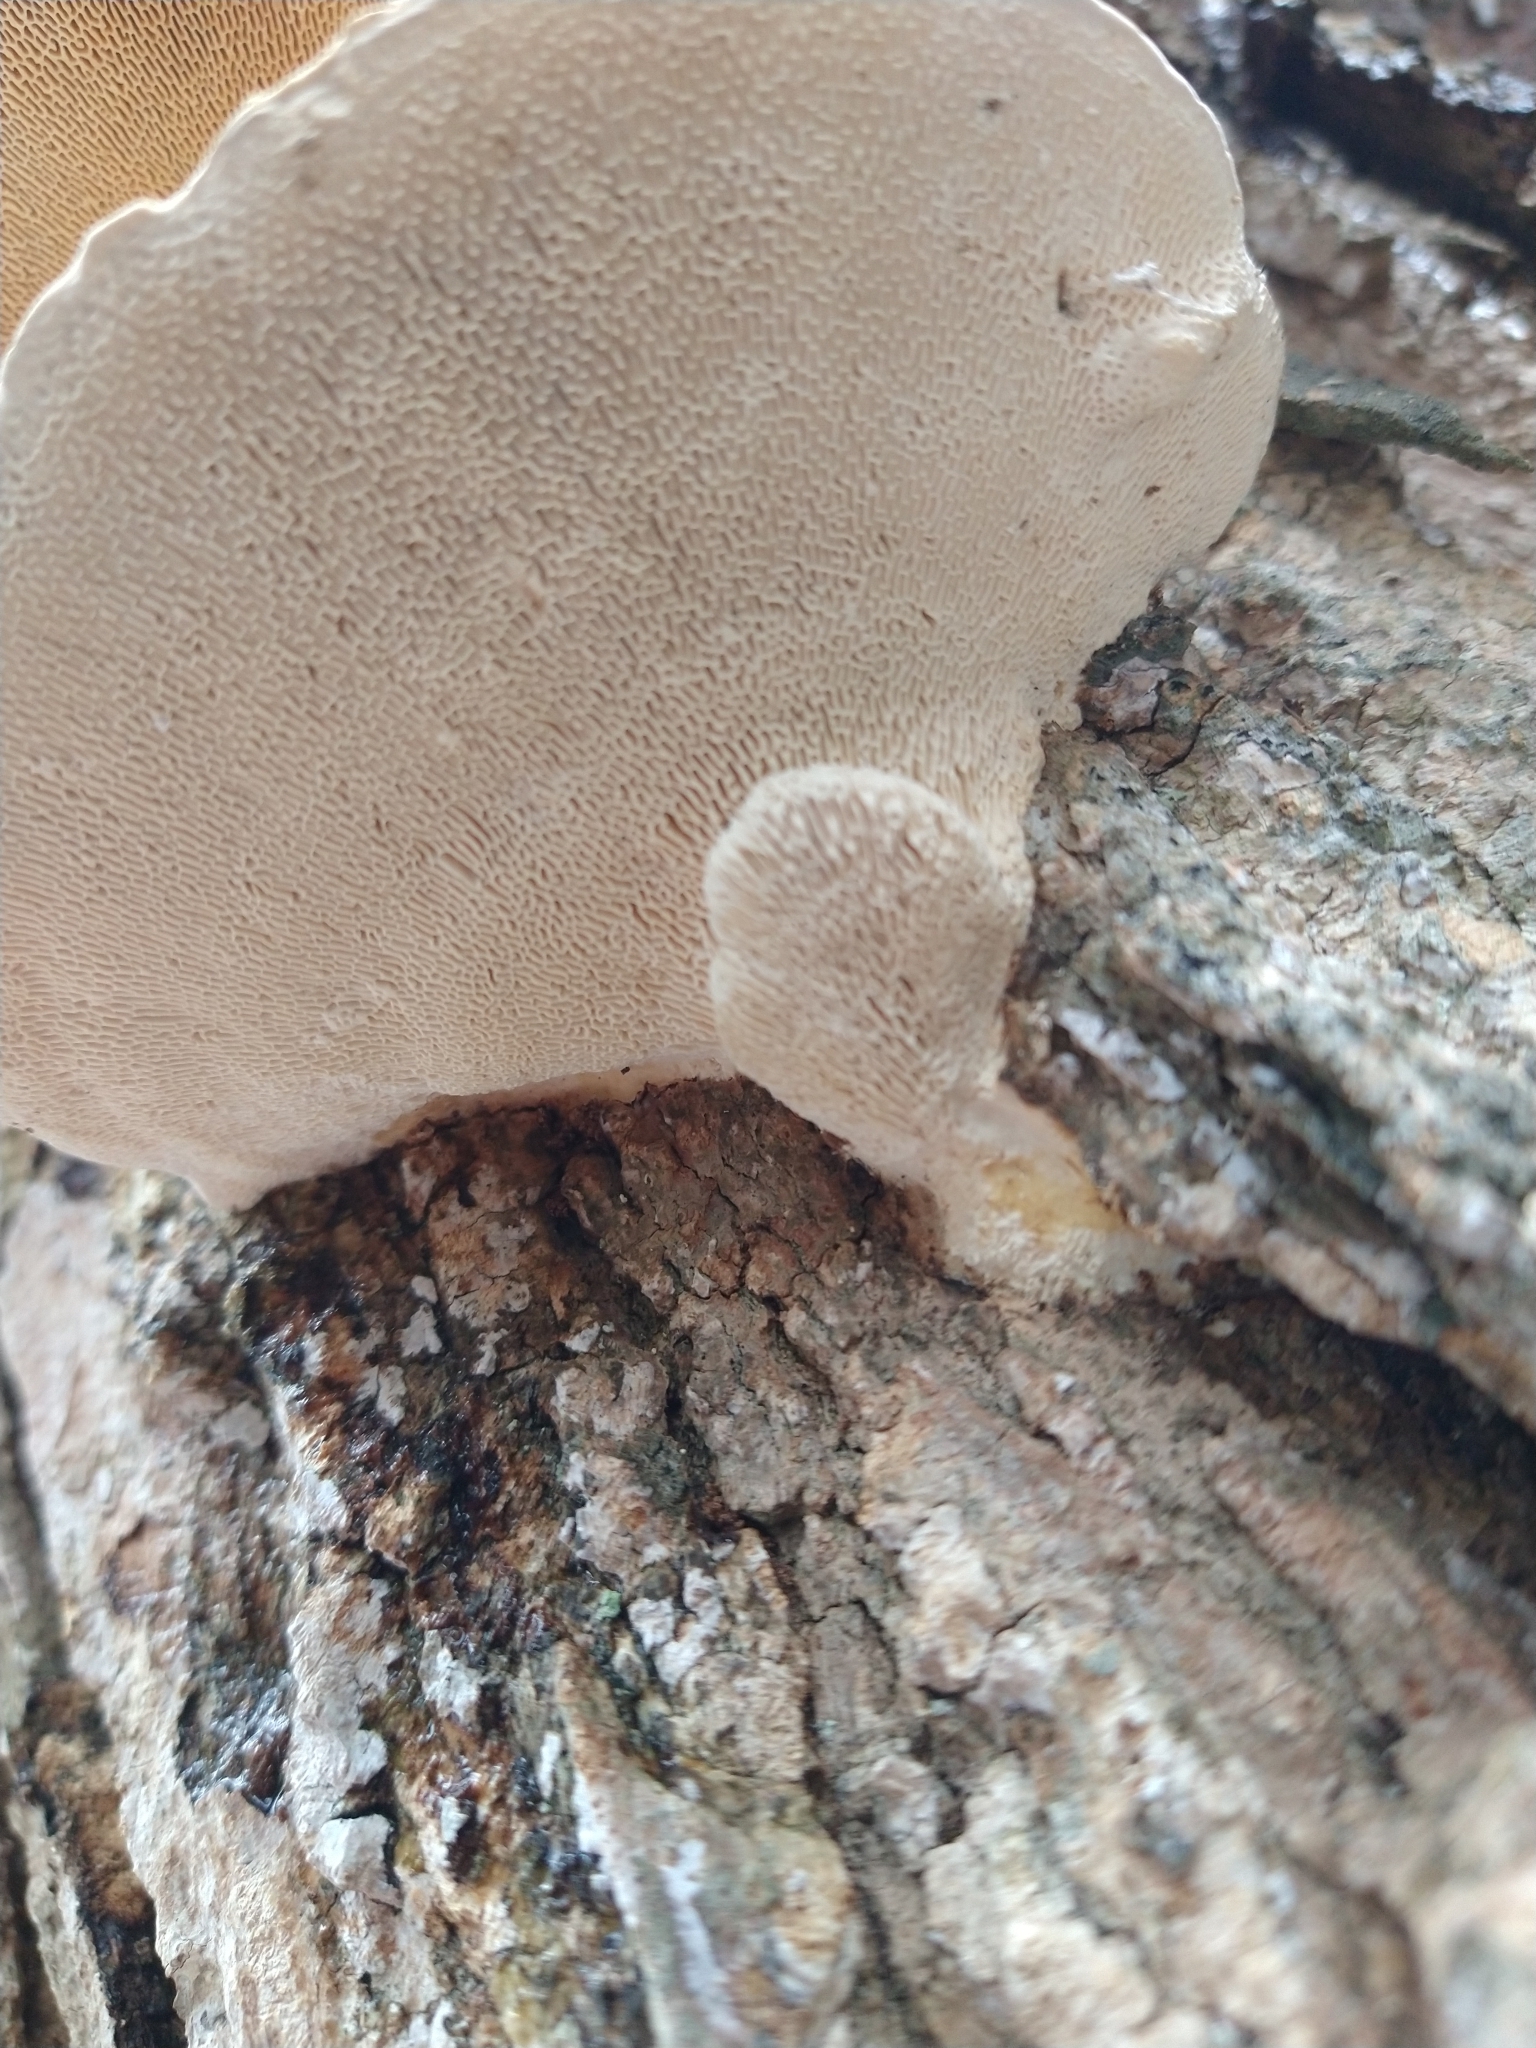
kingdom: Fungi
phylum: Basidiomycota
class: Agaricomycetes
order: Polyporales
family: Polyporaceae
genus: Trametes
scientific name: Trametes gibbosa
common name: Lumpy bracket
